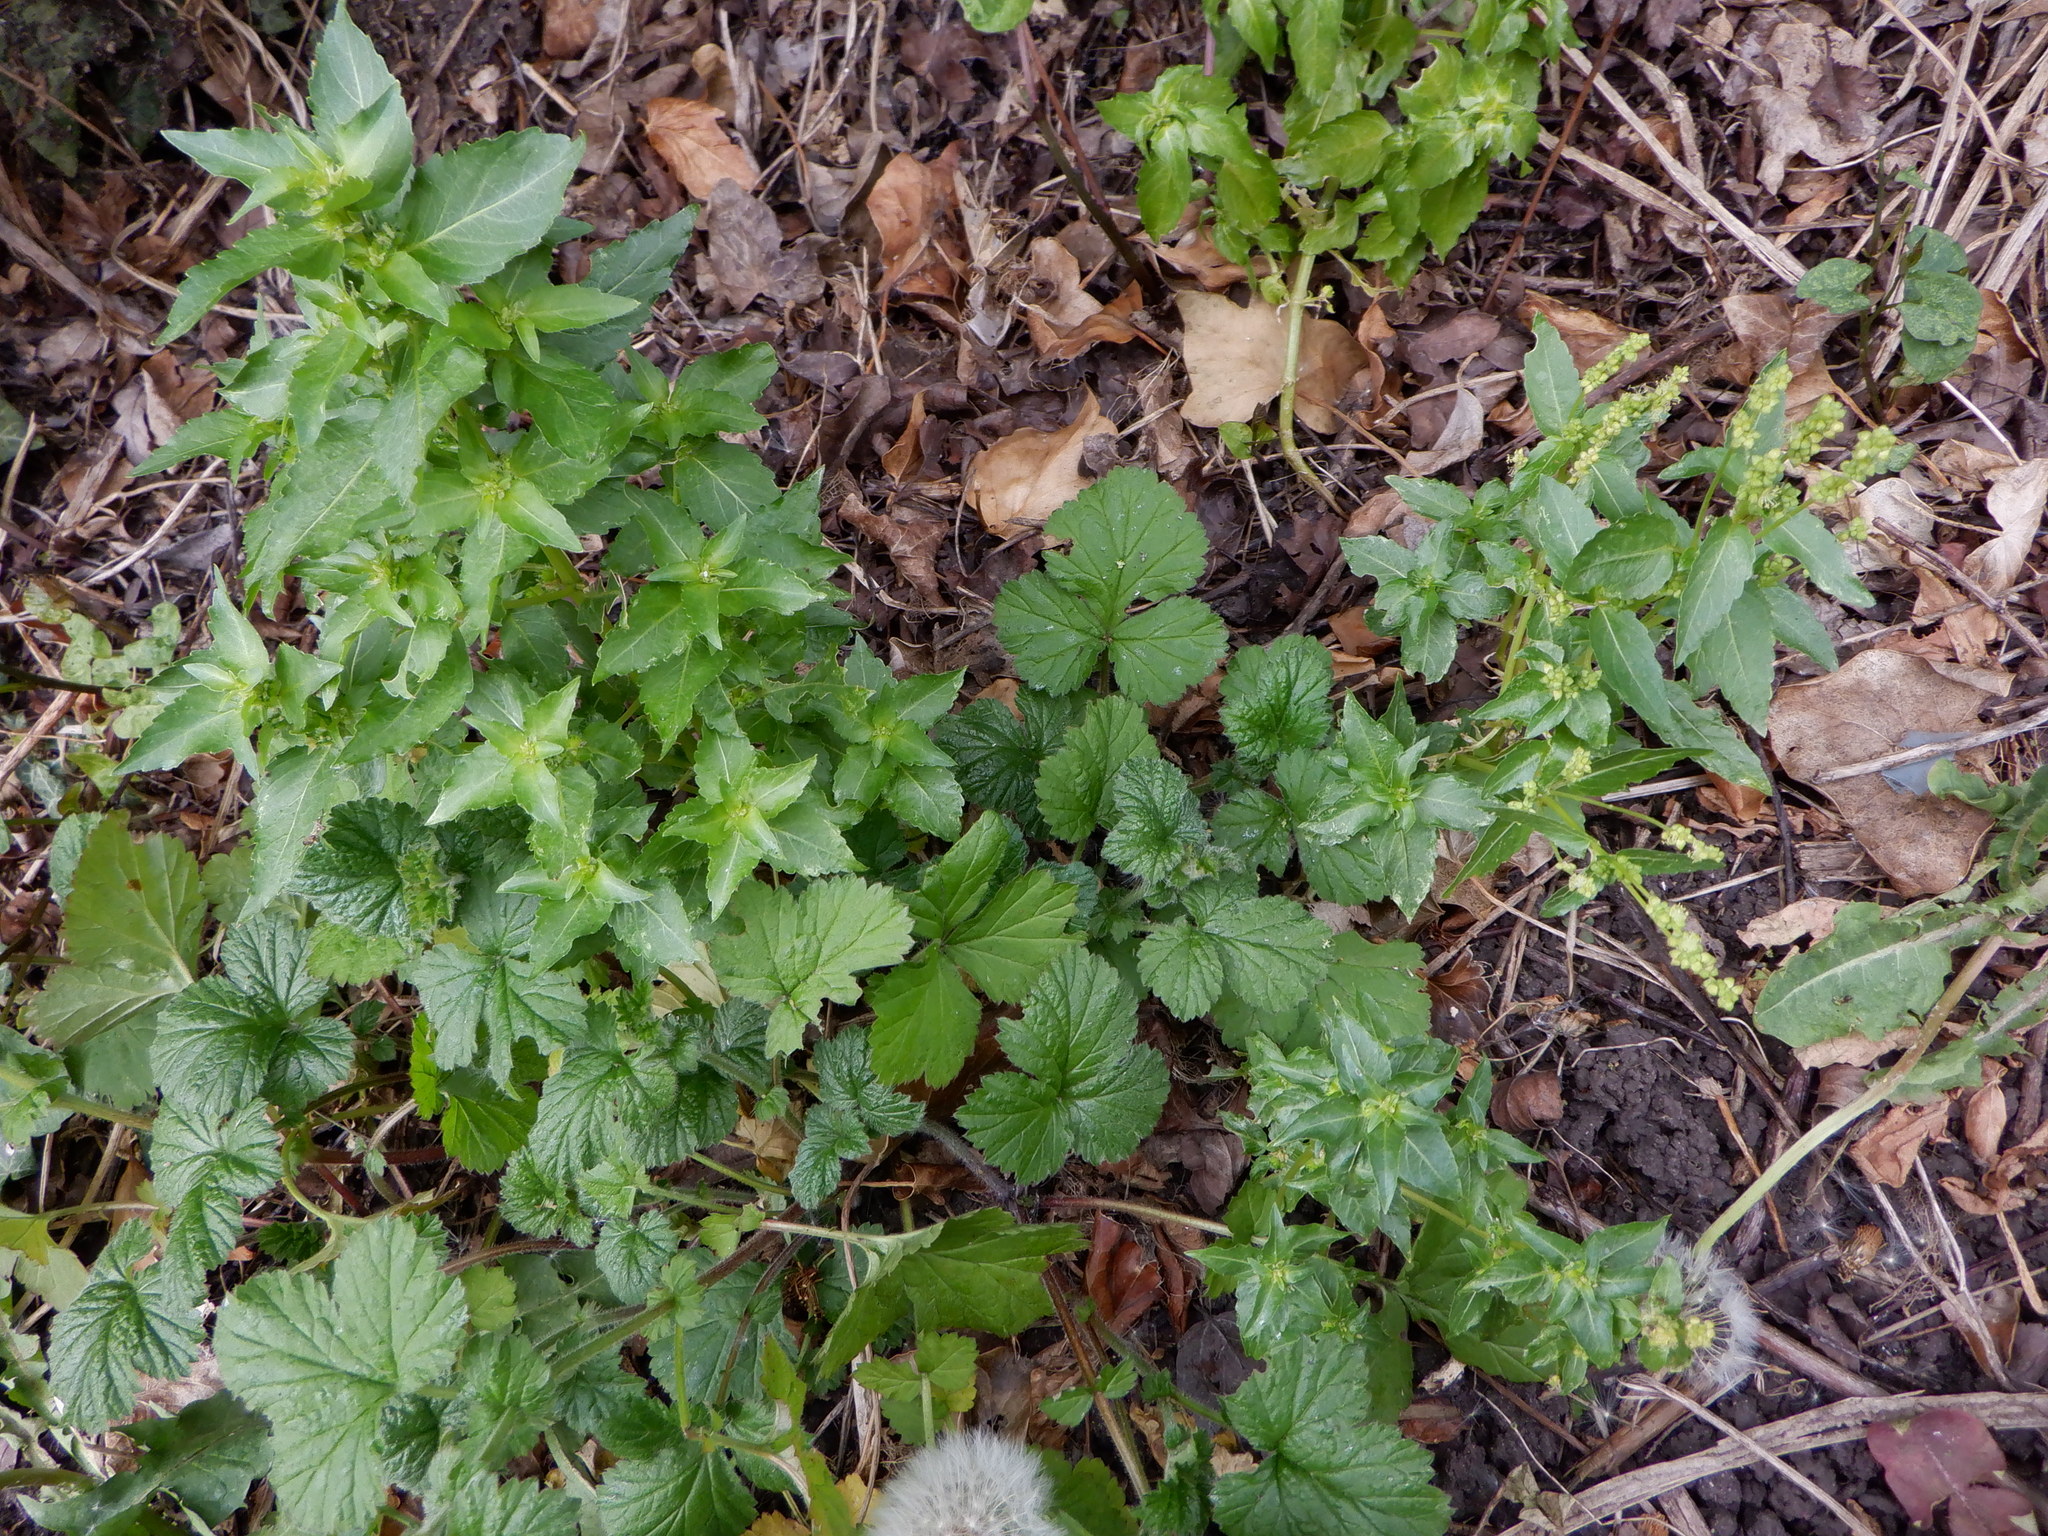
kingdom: Plantae
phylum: Tracheophyta
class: Magnoliopsida
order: Malpighiales
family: Euphorbiaceae
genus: Mercurialis
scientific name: Mercurialis annua
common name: Annual mercury
